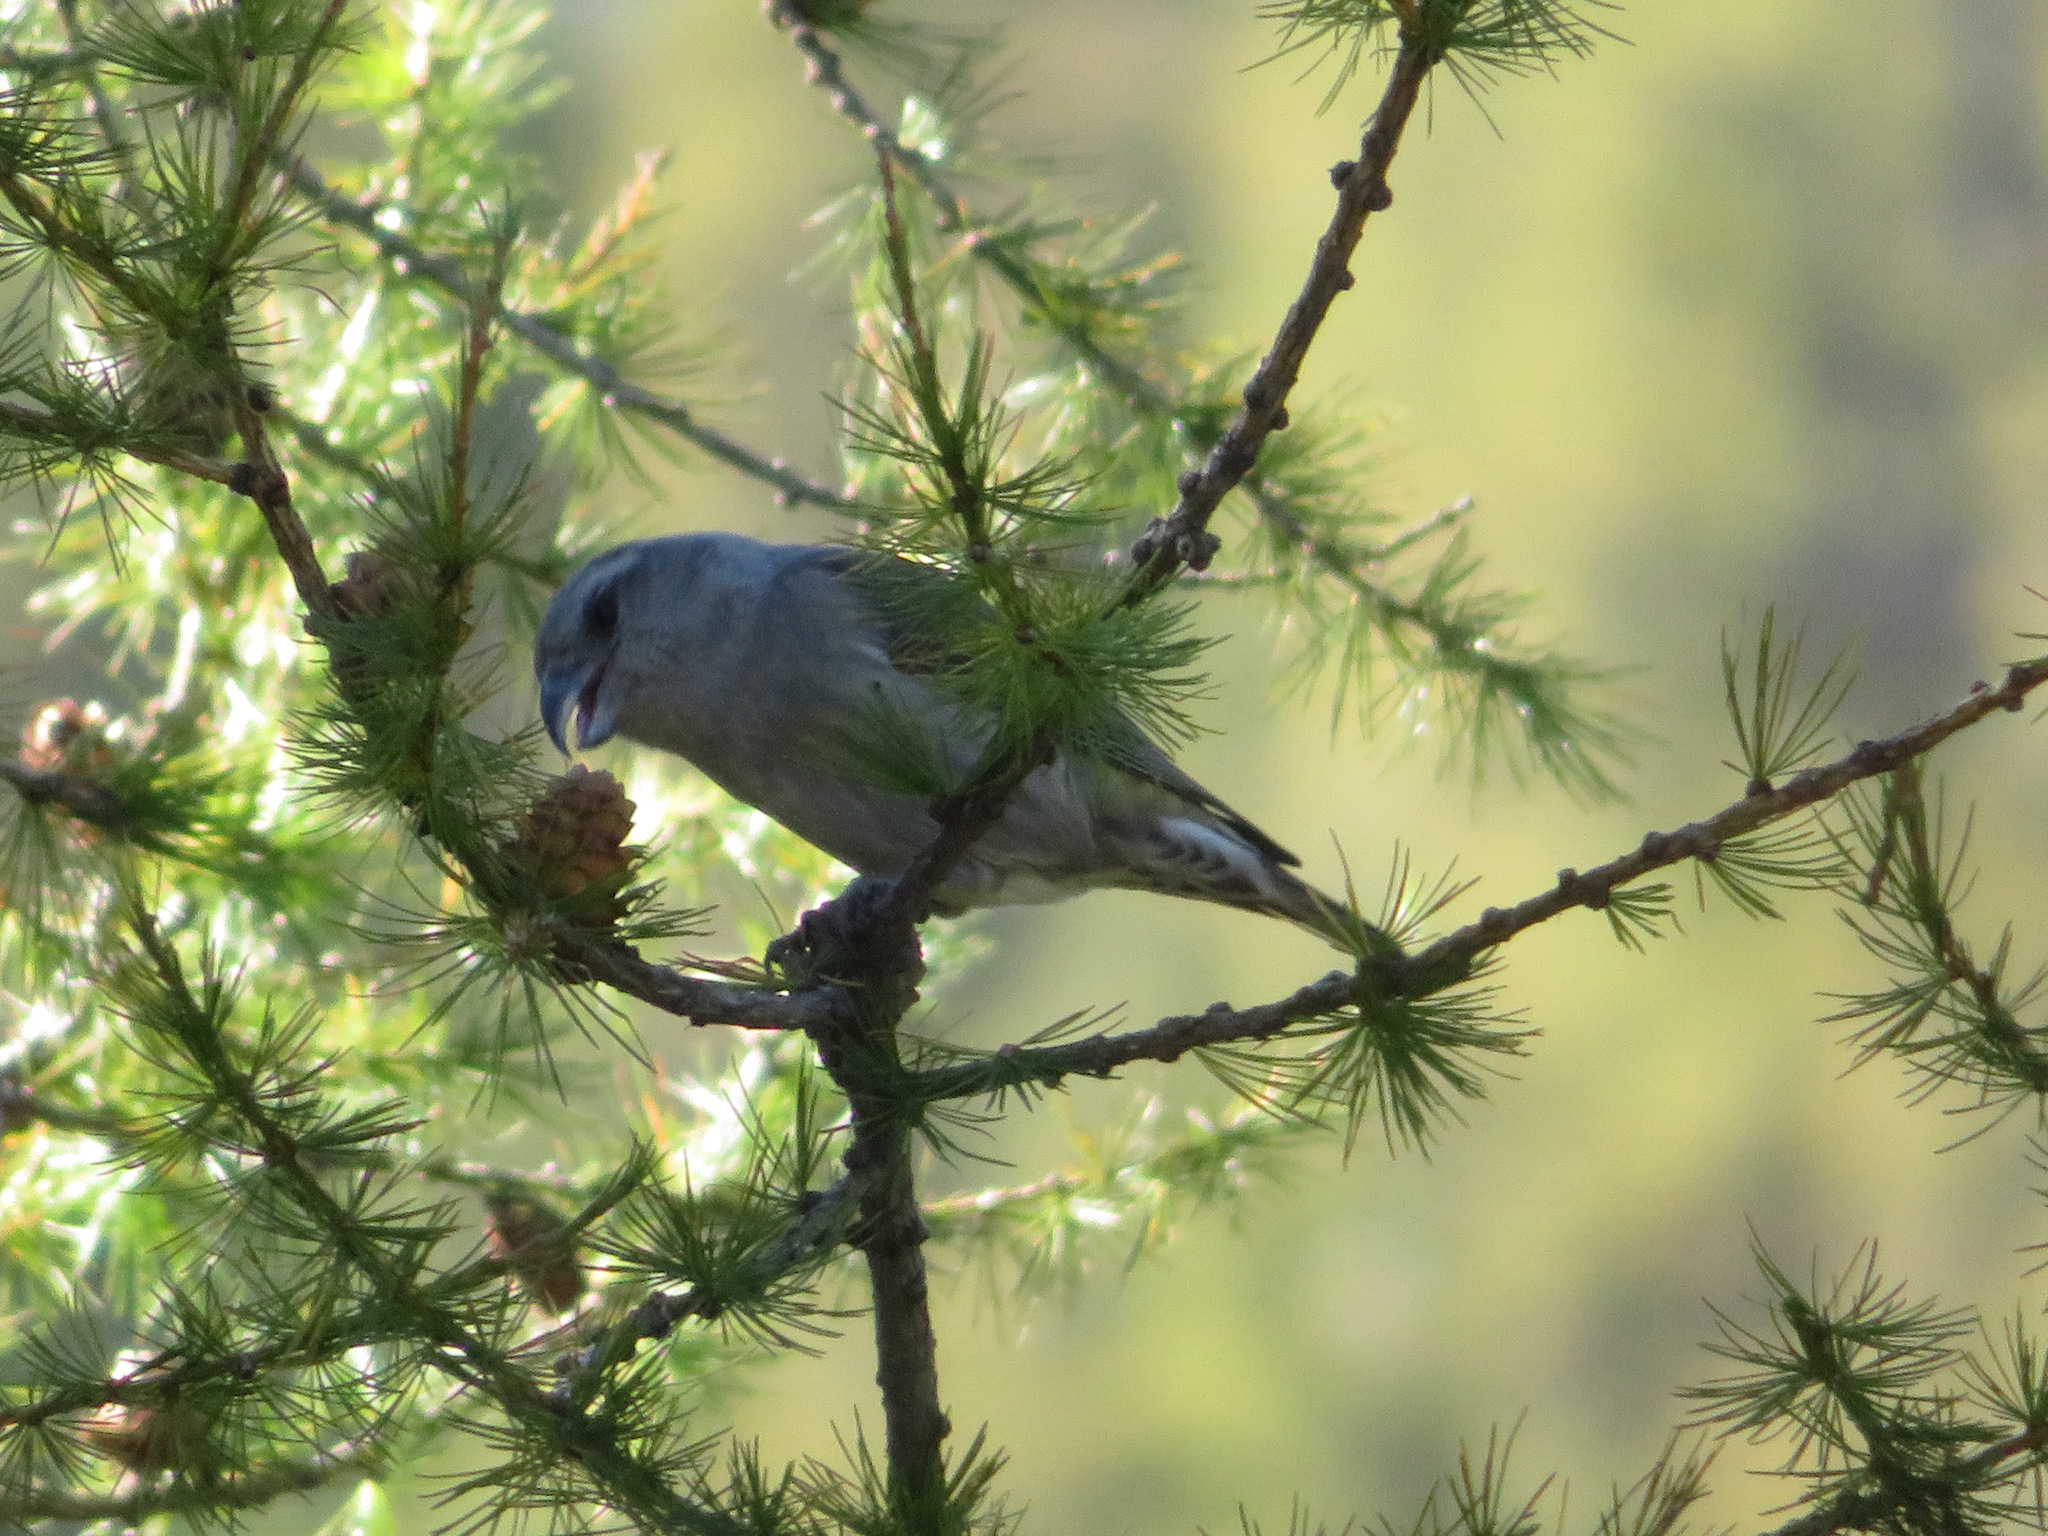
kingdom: Animalia
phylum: Chordata
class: Aves
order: Passeriformes
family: Fringillidae
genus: Loxia
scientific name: Loxia curvirostra
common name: Red crossbill
